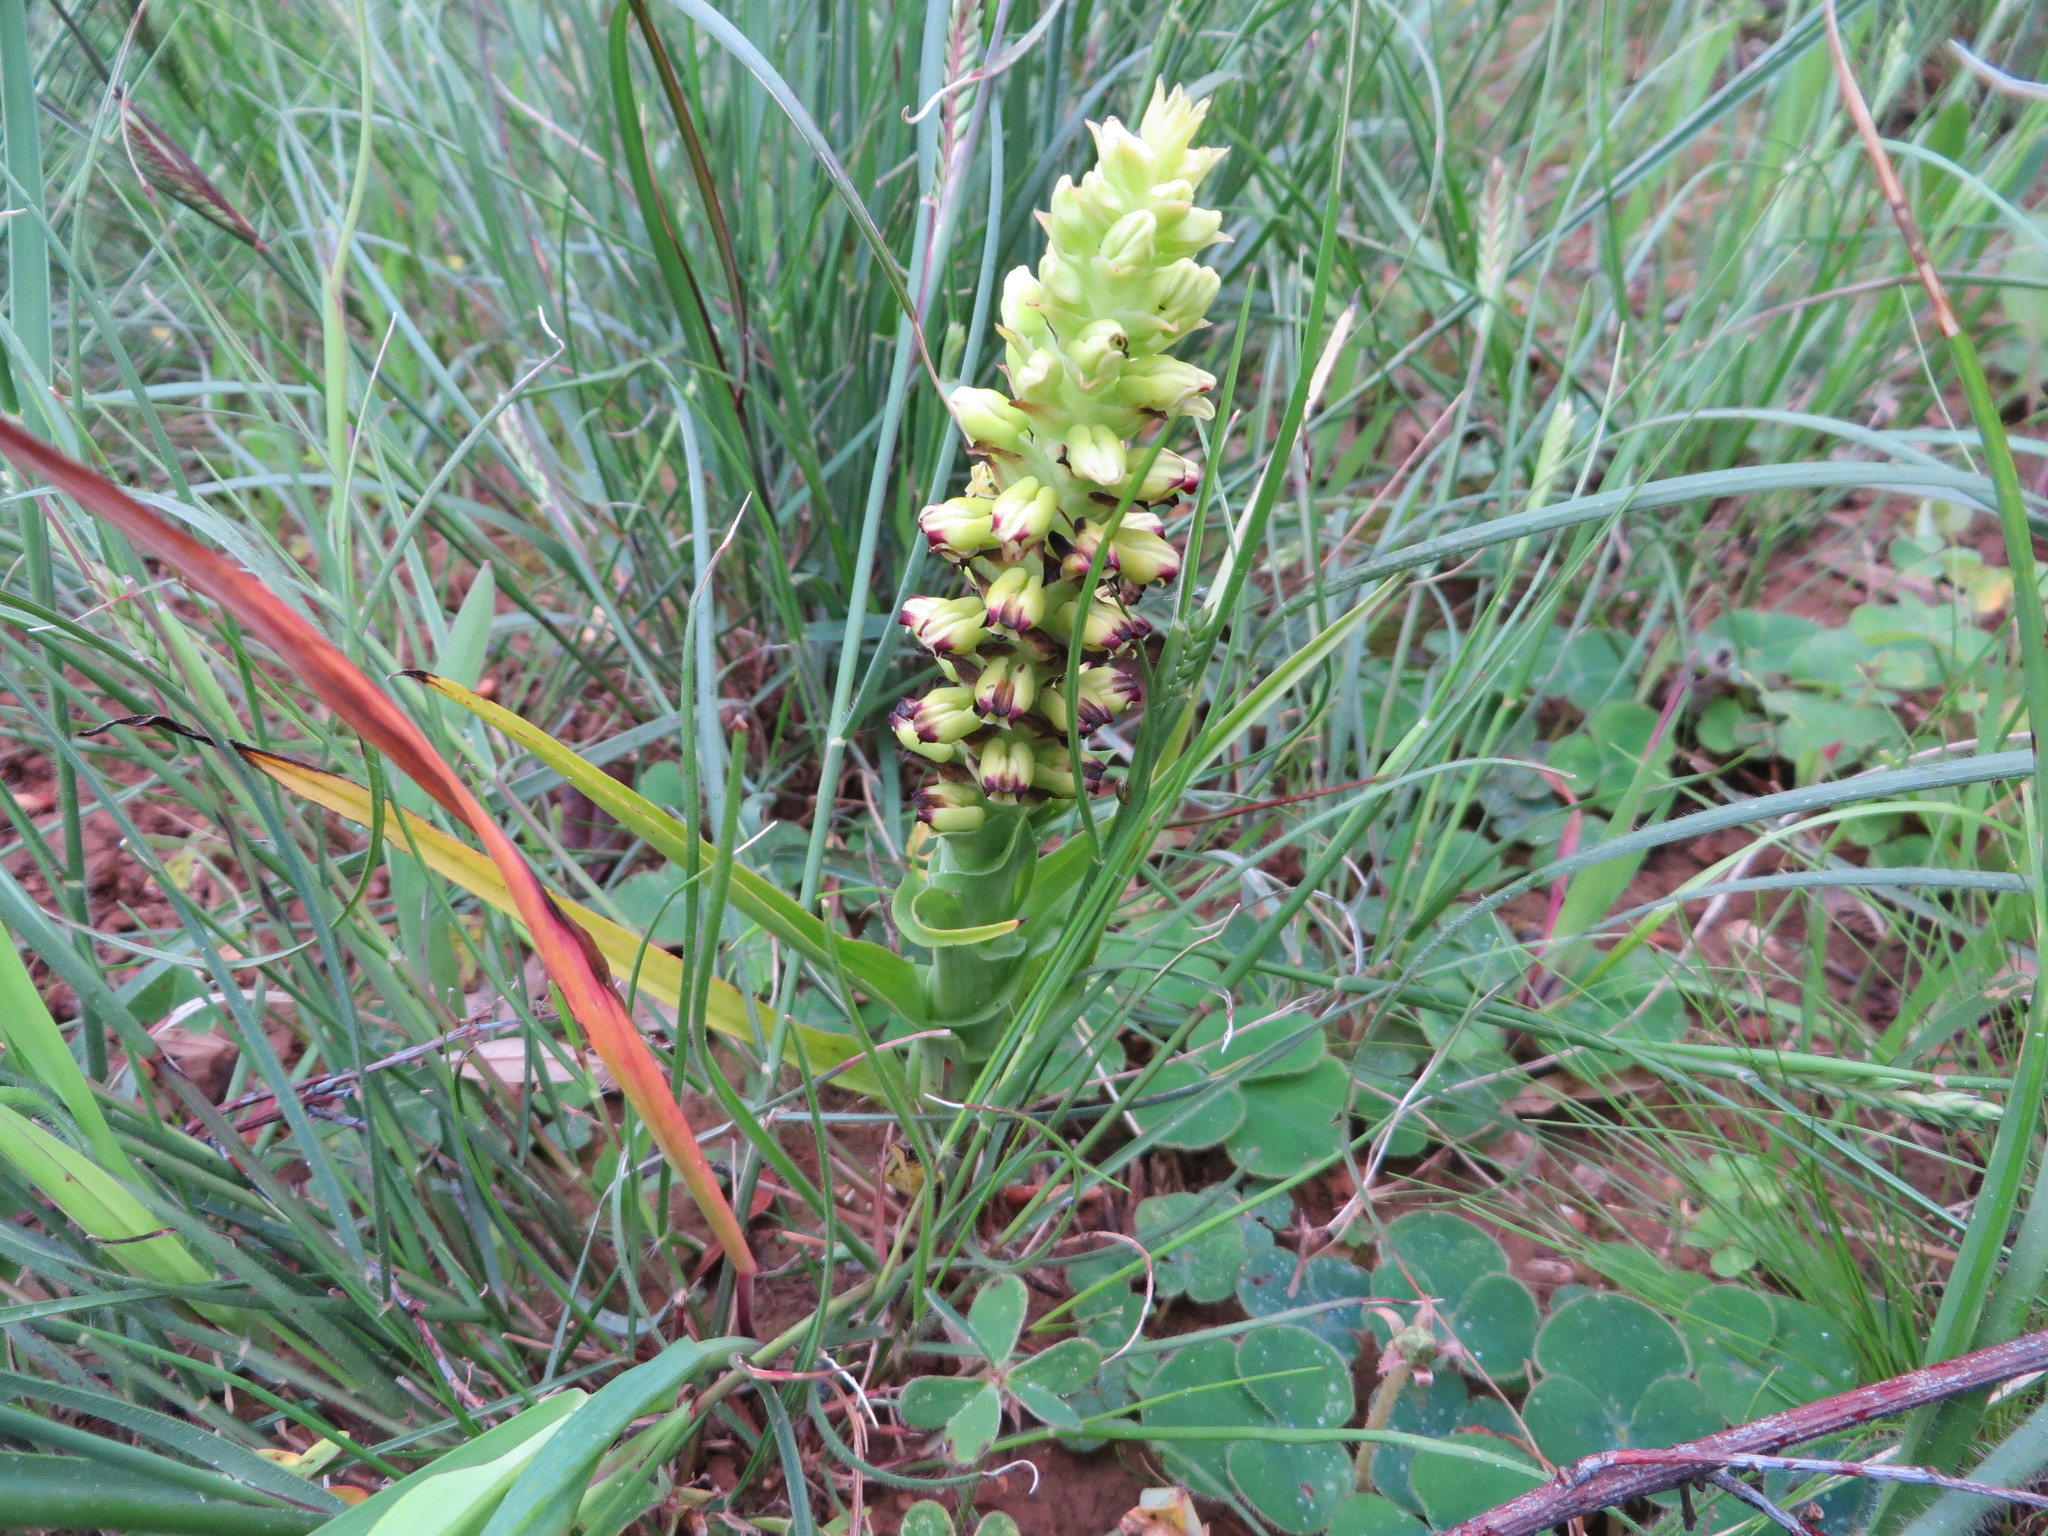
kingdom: Plantae
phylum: Tracheophyta
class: Liliopsida
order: Asparagales
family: Orchidaceae
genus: Corycium
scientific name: Corycium orobanchoides
